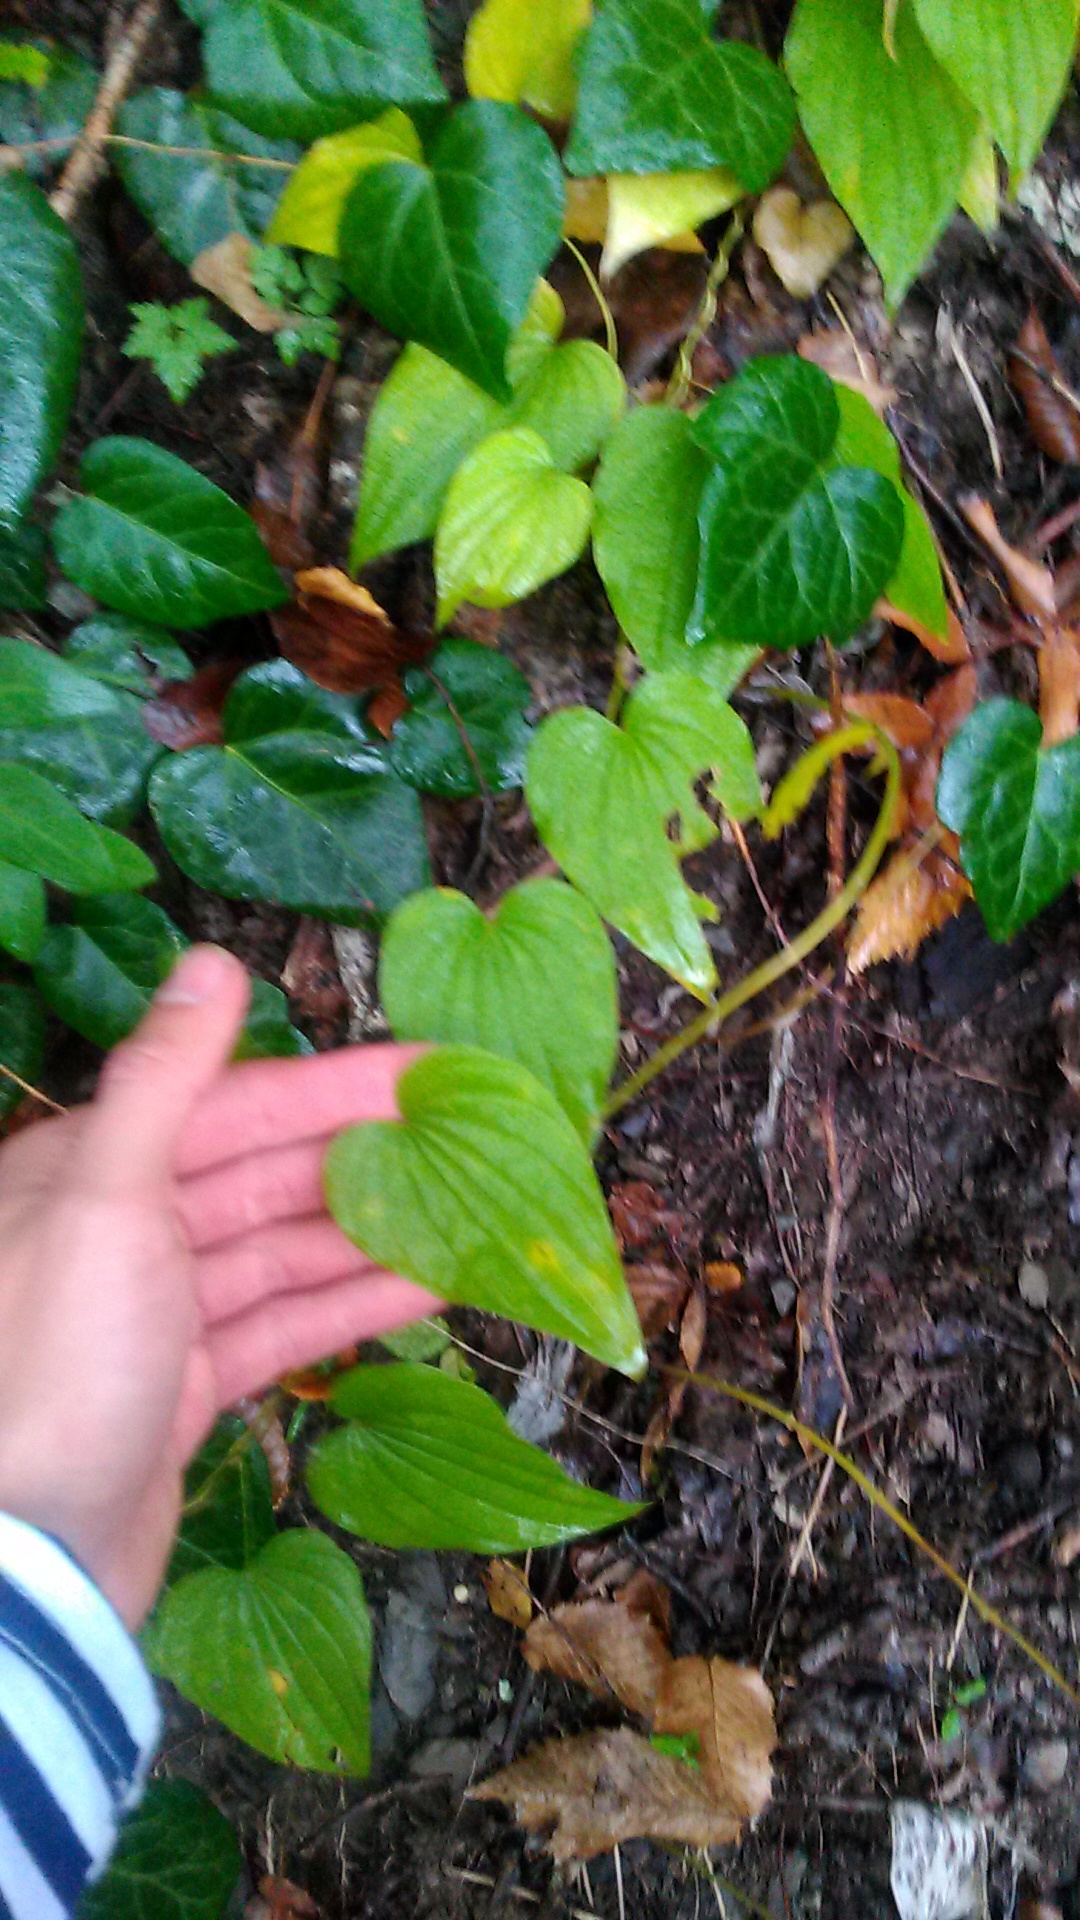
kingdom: Plantae
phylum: Tracheophyta
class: Liliopsida
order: Dioscoreales
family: Dioscoreaceae
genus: Dioscorea
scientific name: Dioscorea caucasica
